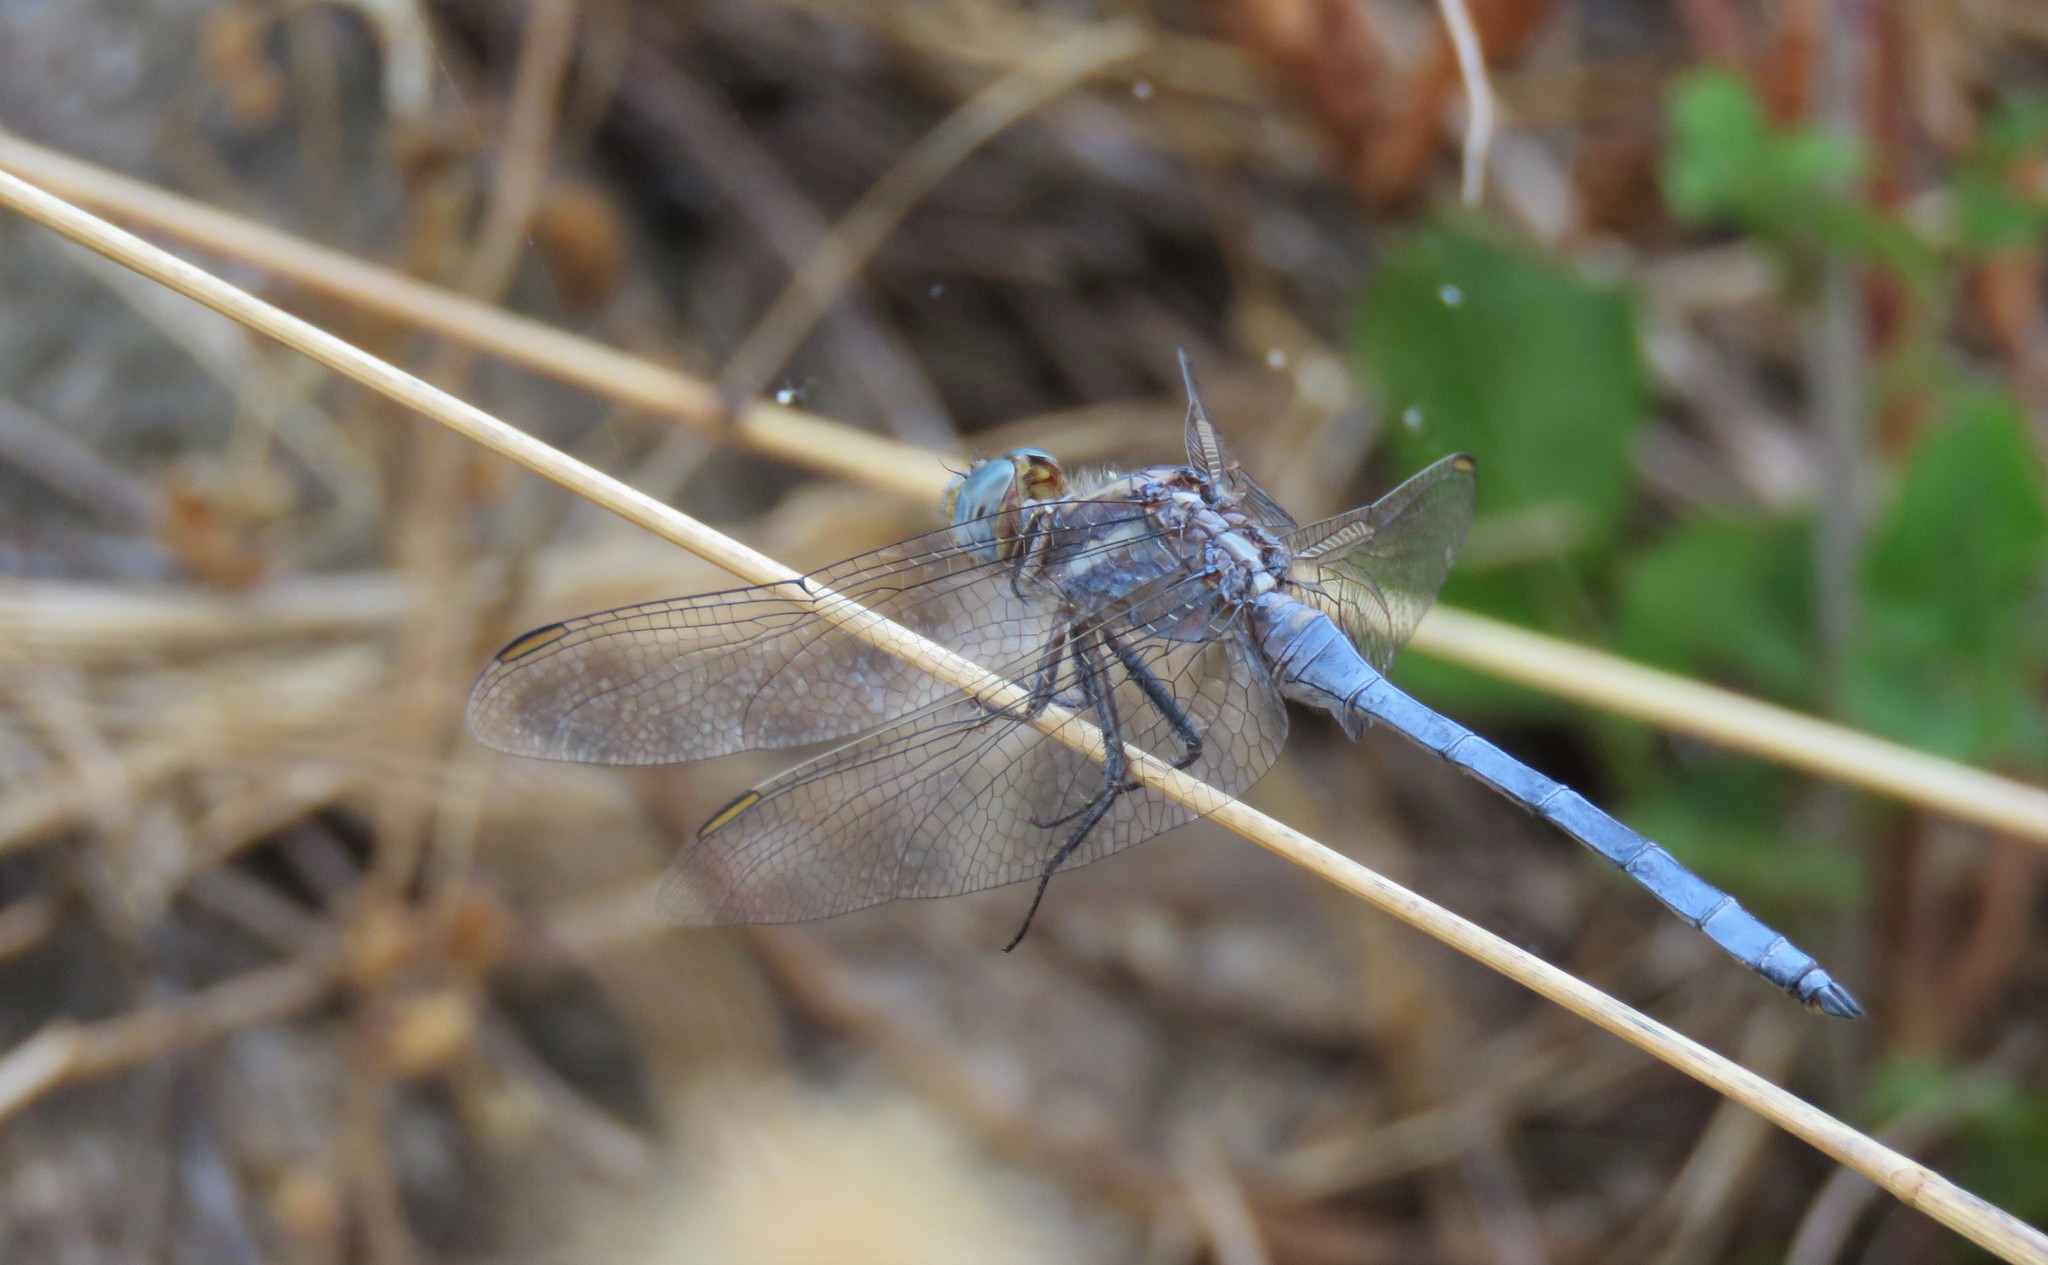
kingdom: Animalia
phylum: Arthropoda
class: Insecta
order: Odonata
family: Libellulidae
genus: Orthetrum
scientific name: Orthetrum chrysostigma
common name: Epaulet skimmer
